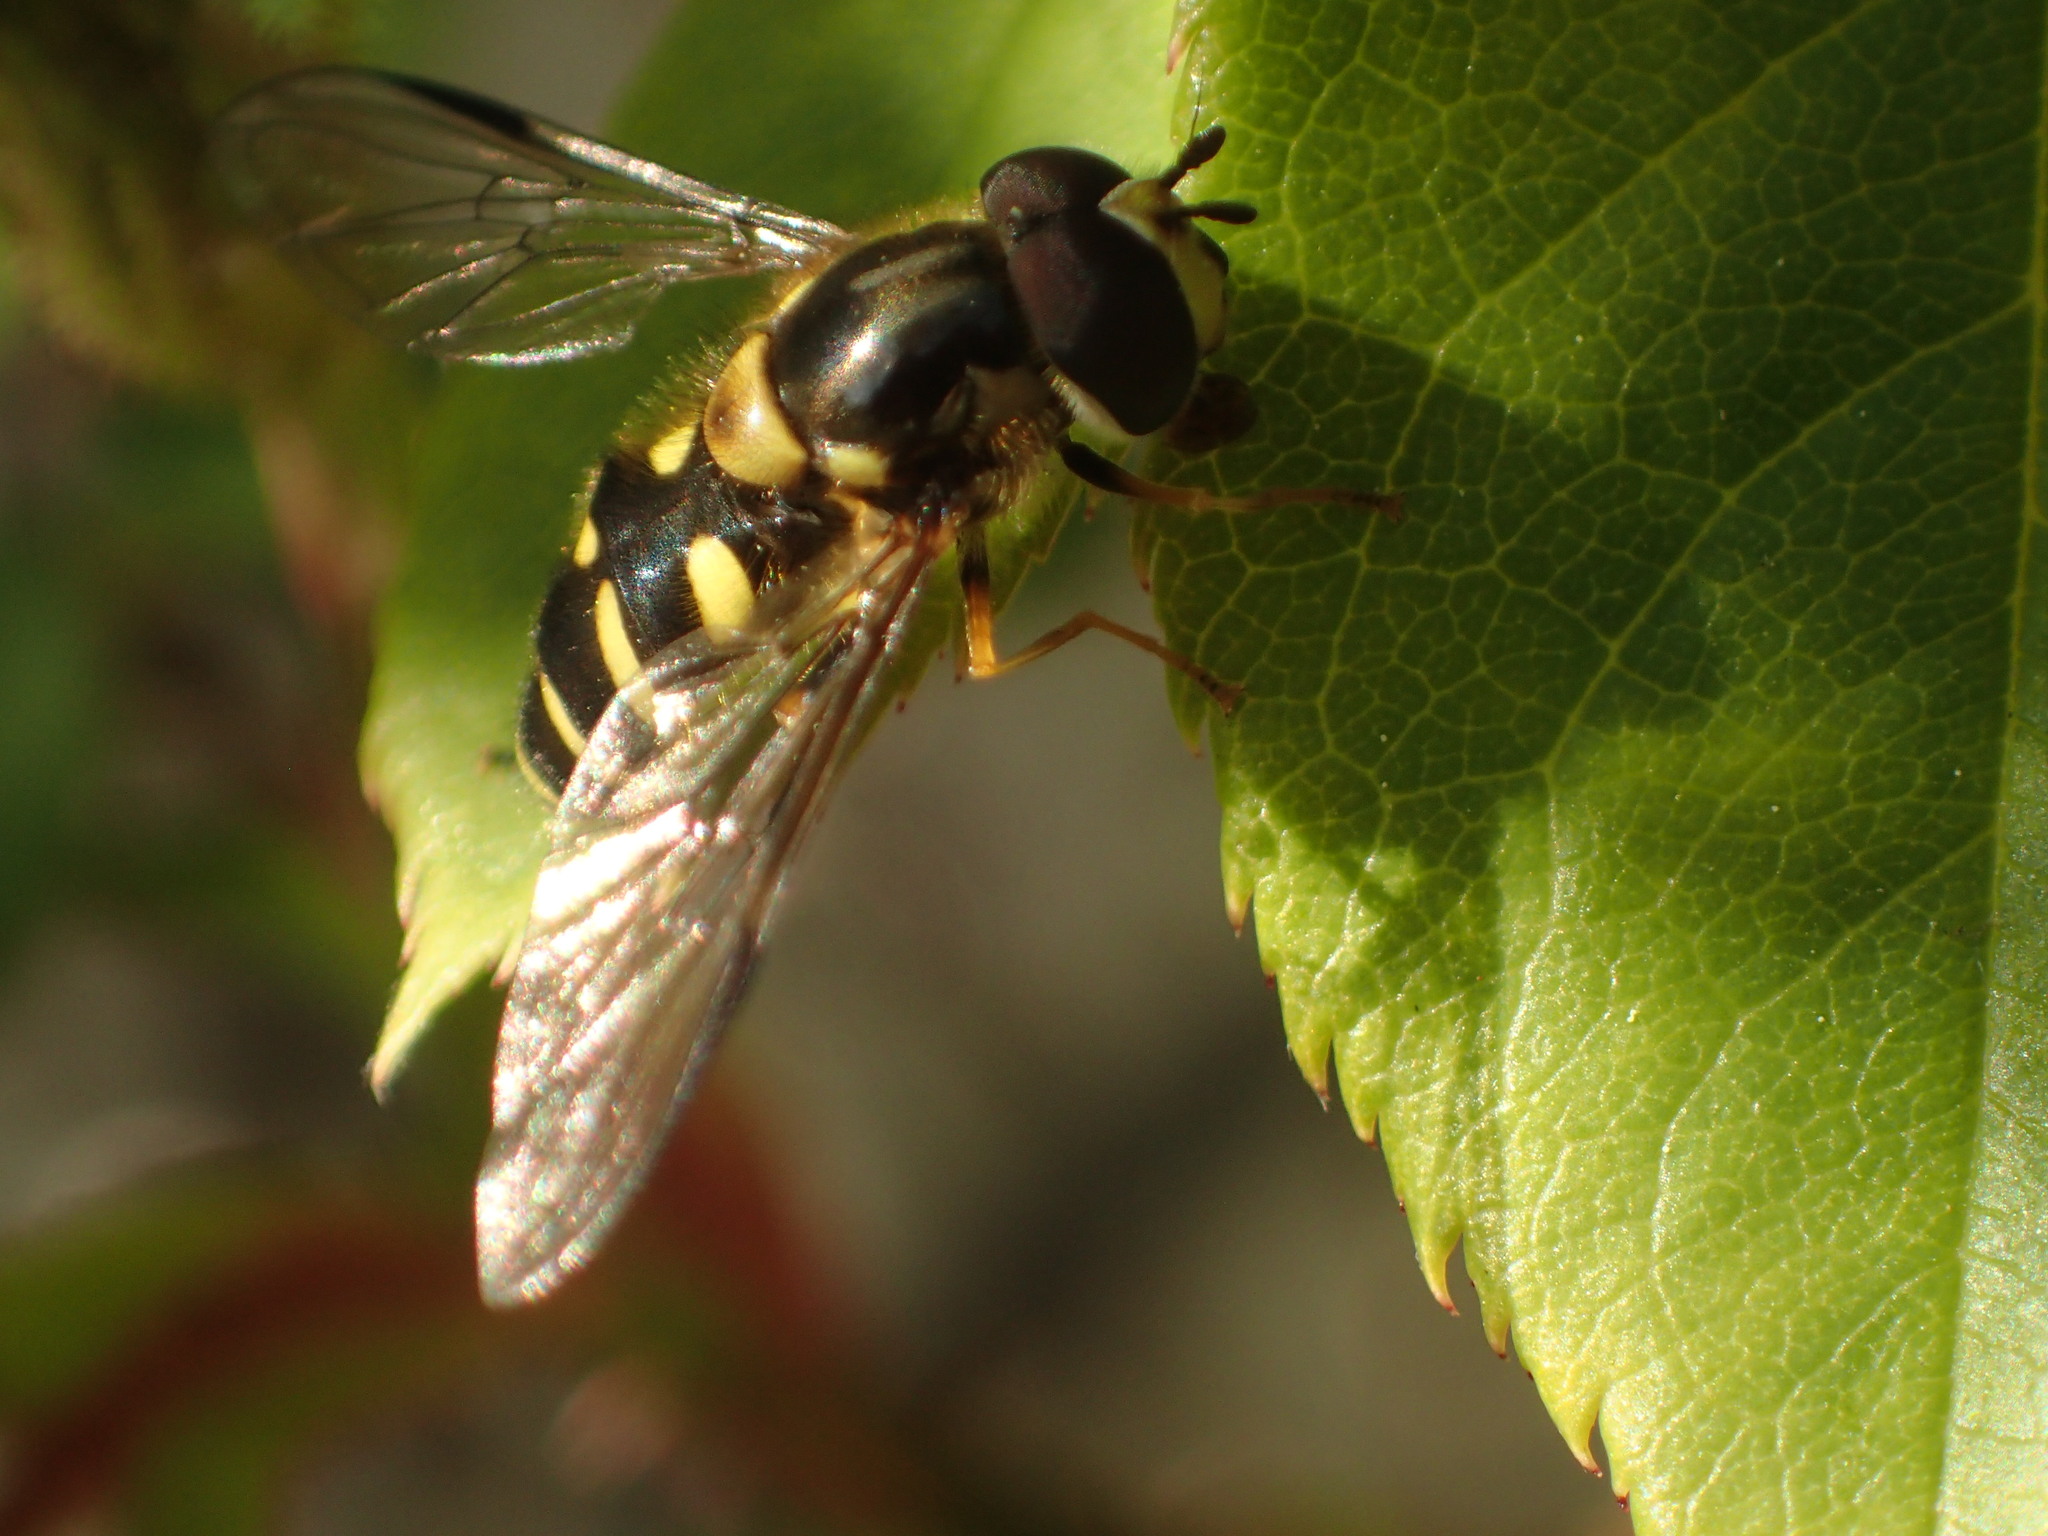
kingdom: Animalia
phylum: Arthropoda
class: Insecta
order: Diptera
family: Syrphidae
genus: Dasysyrphus
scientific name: Dasysyrphus albostriatus
